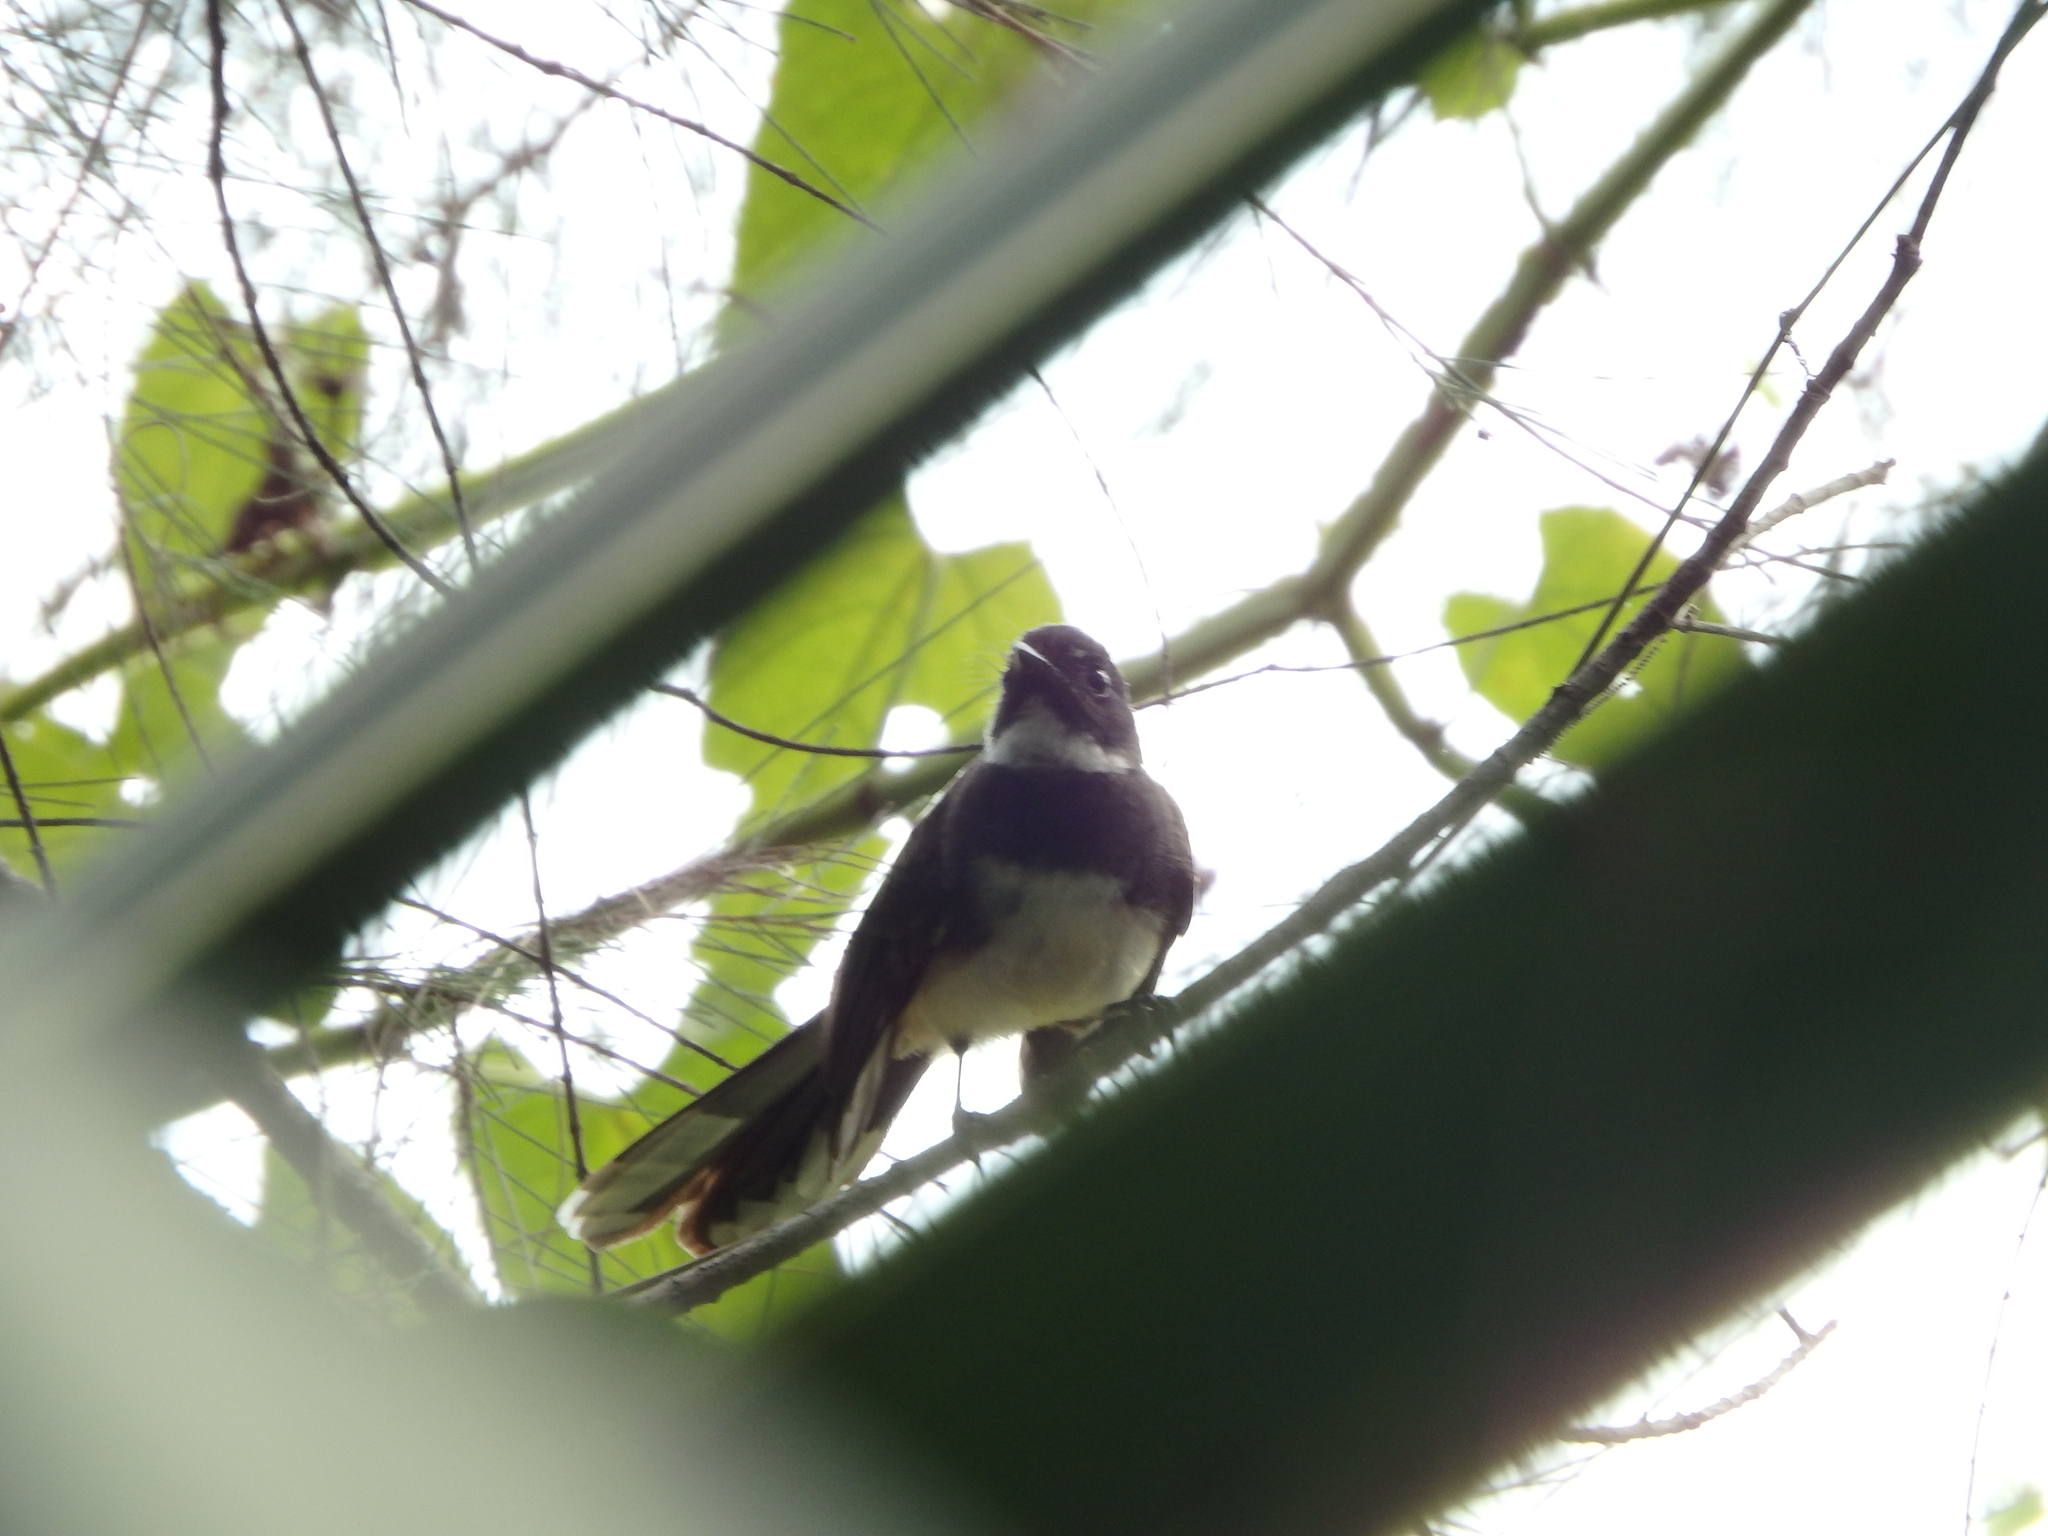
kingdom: Animalia
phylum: Chordata
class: Aves
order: Passeriformes
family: Rhipiduridae
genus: Rhipidura
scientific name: Rhipidura javanica
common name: Pied fantail
